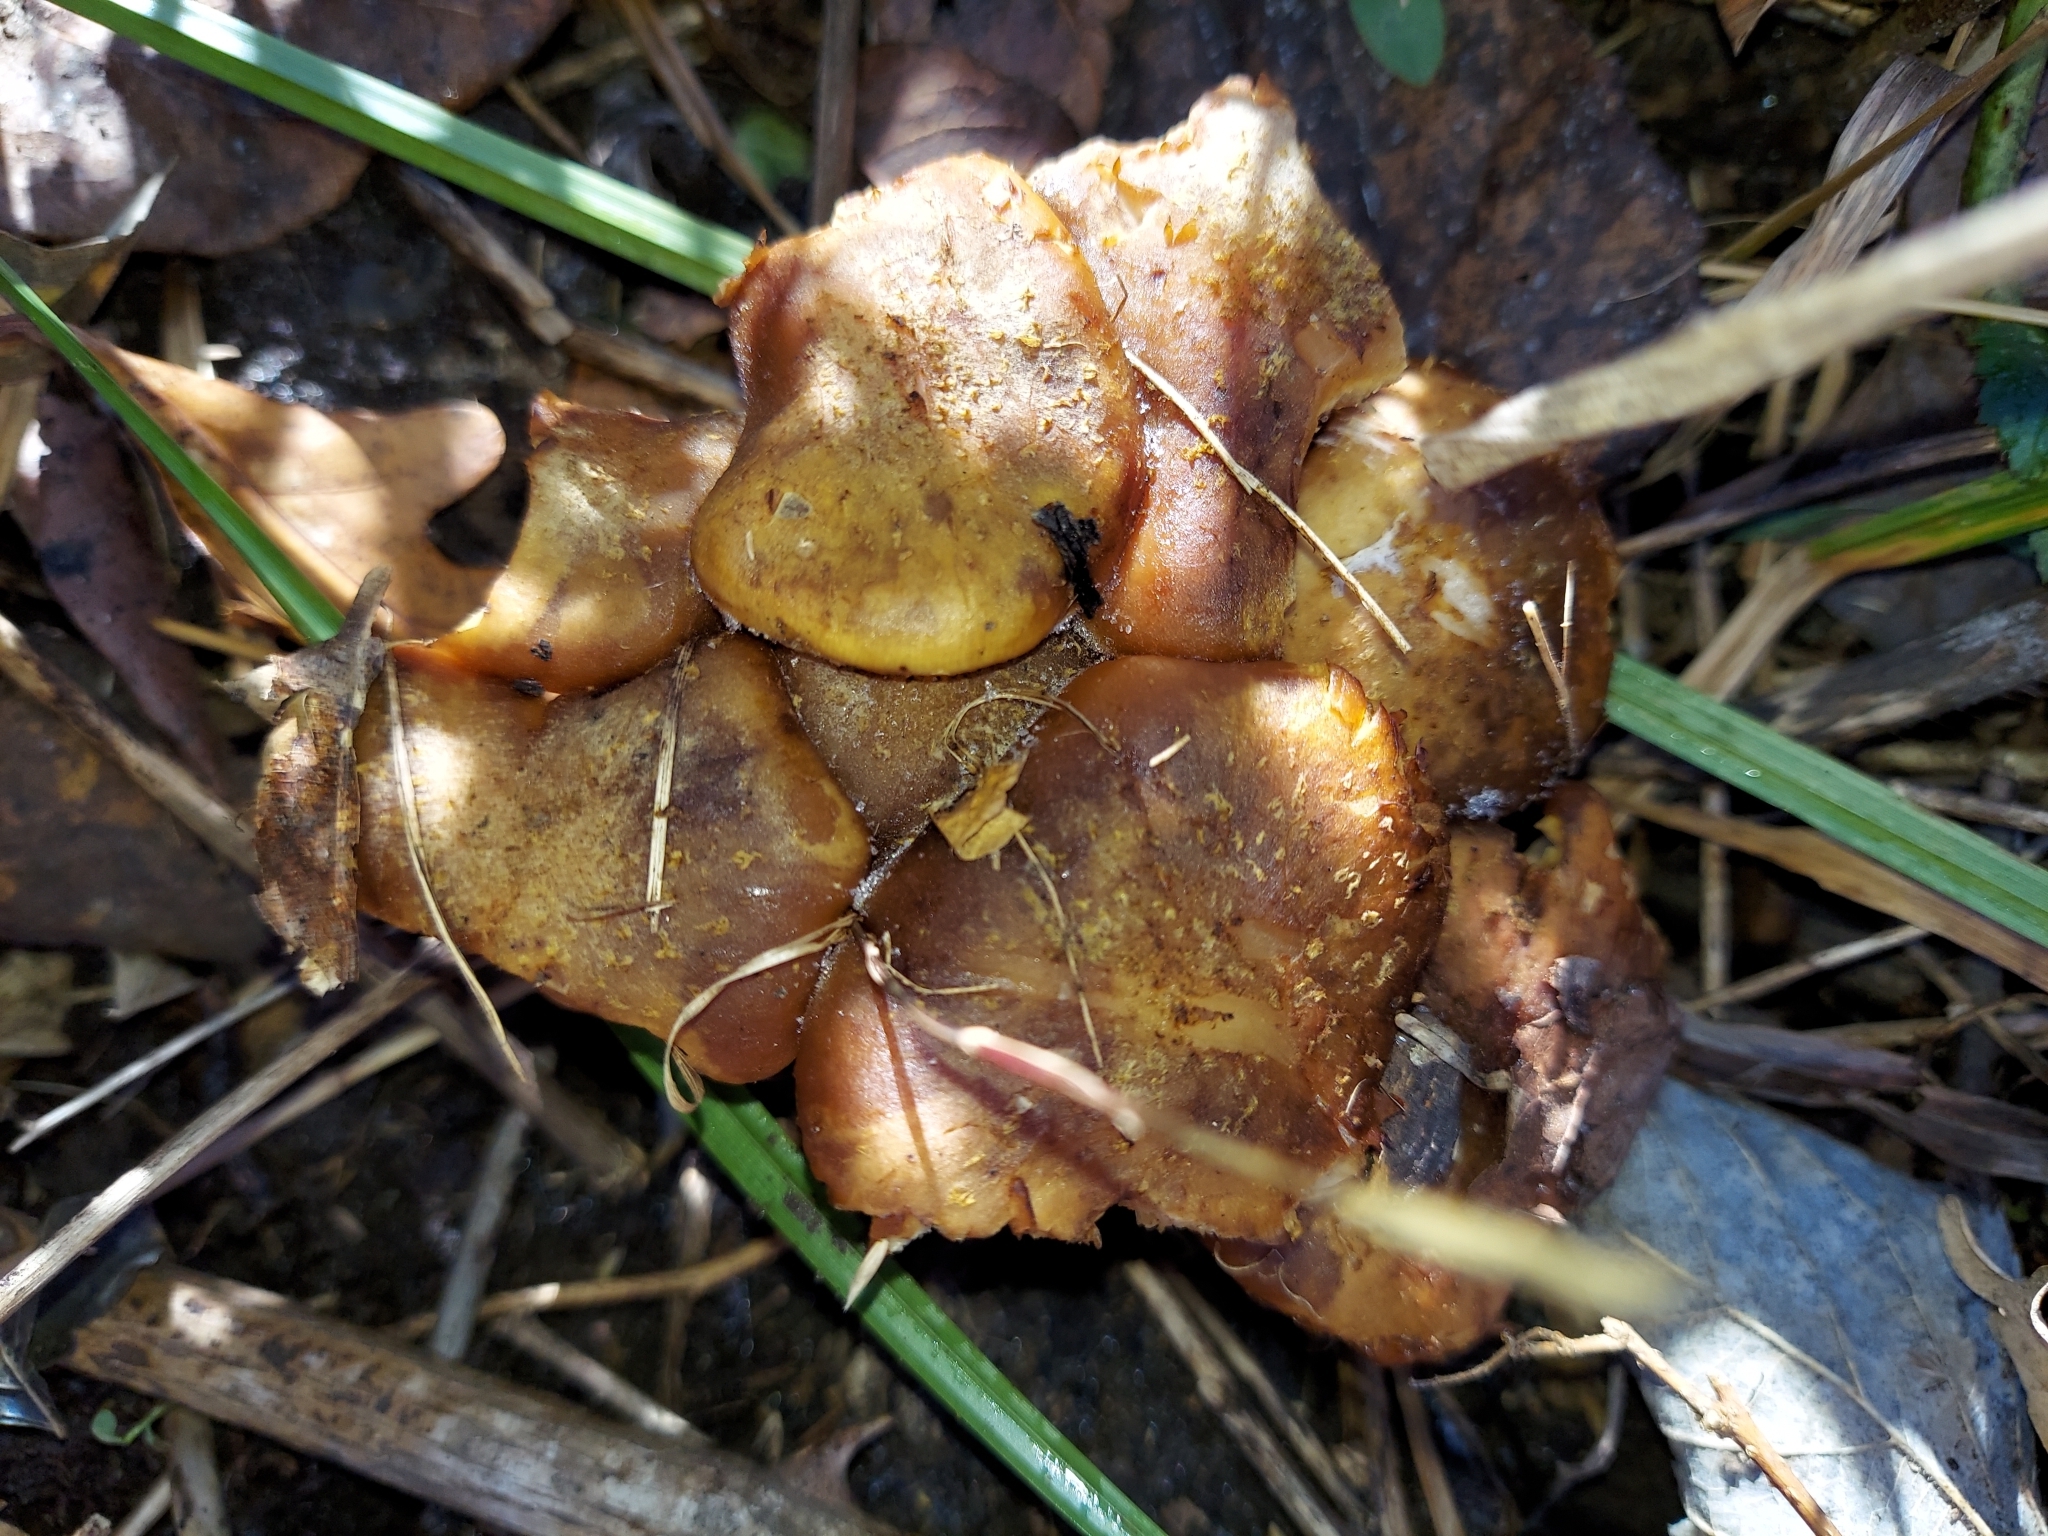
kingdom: Fungi
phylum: Basidiomycota
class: Agaricomycetes
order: Agaricales
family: Physalacriaceae
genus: Armillaria
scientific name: Armillaria gallica
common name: Bulbous honey fungus
